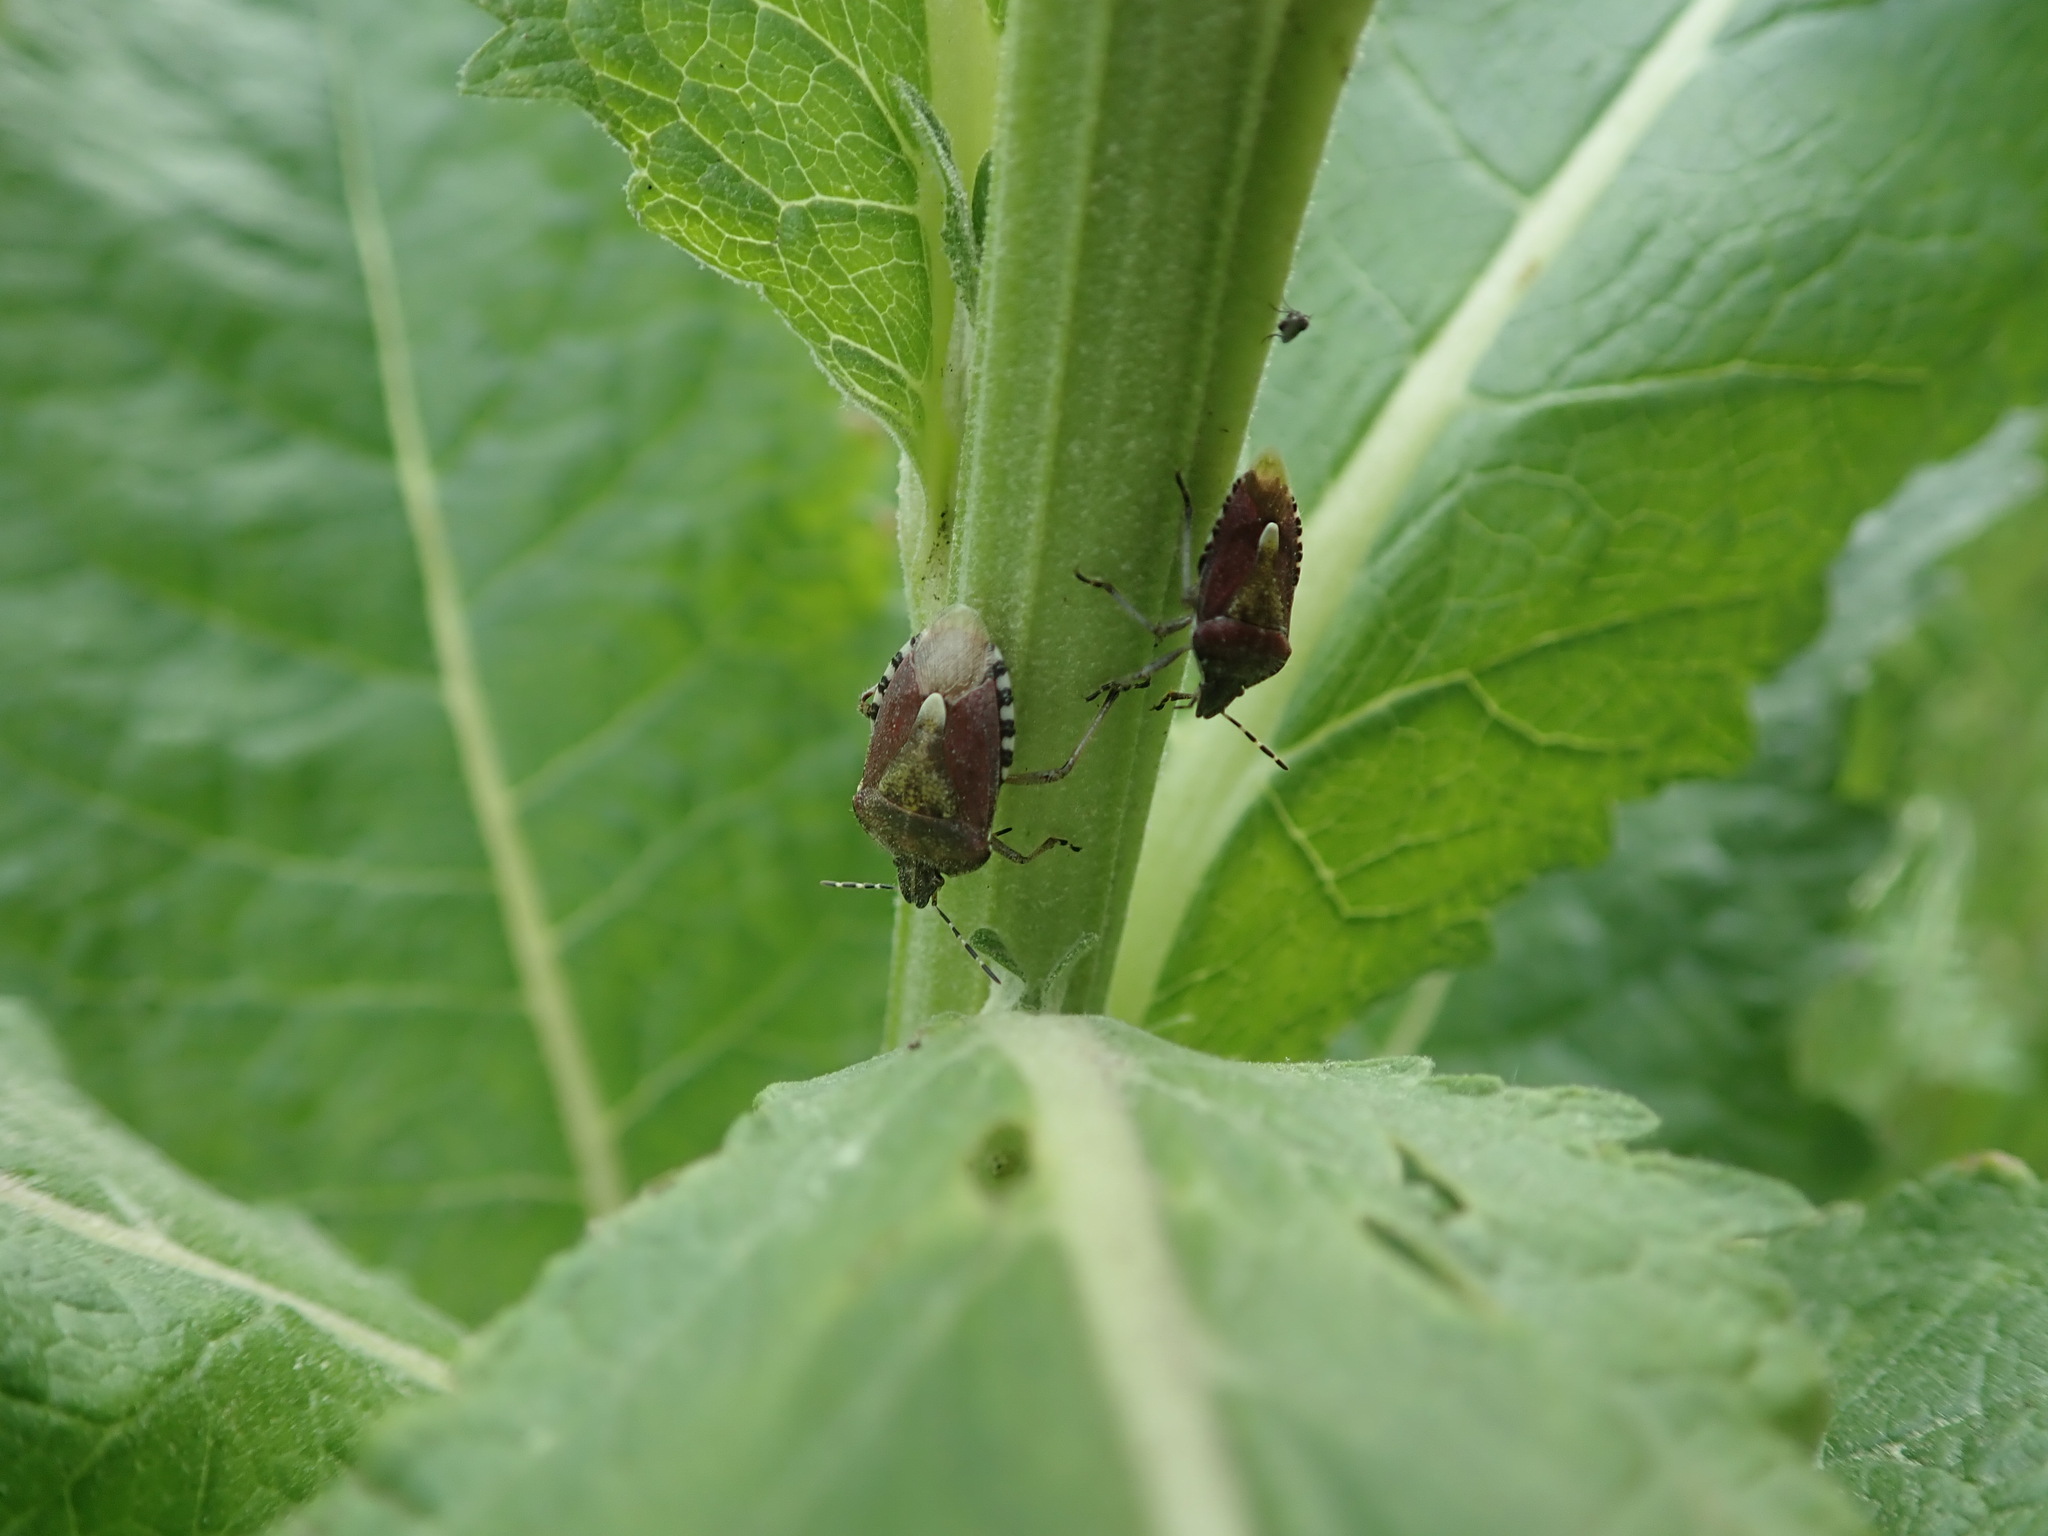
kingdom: Animalia
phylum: Arthropoda
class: Insecta
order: Hemiptera
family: Pentatomidae
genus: Dolycoris
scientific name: Dolycoris baccarum
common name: Sloe bug
